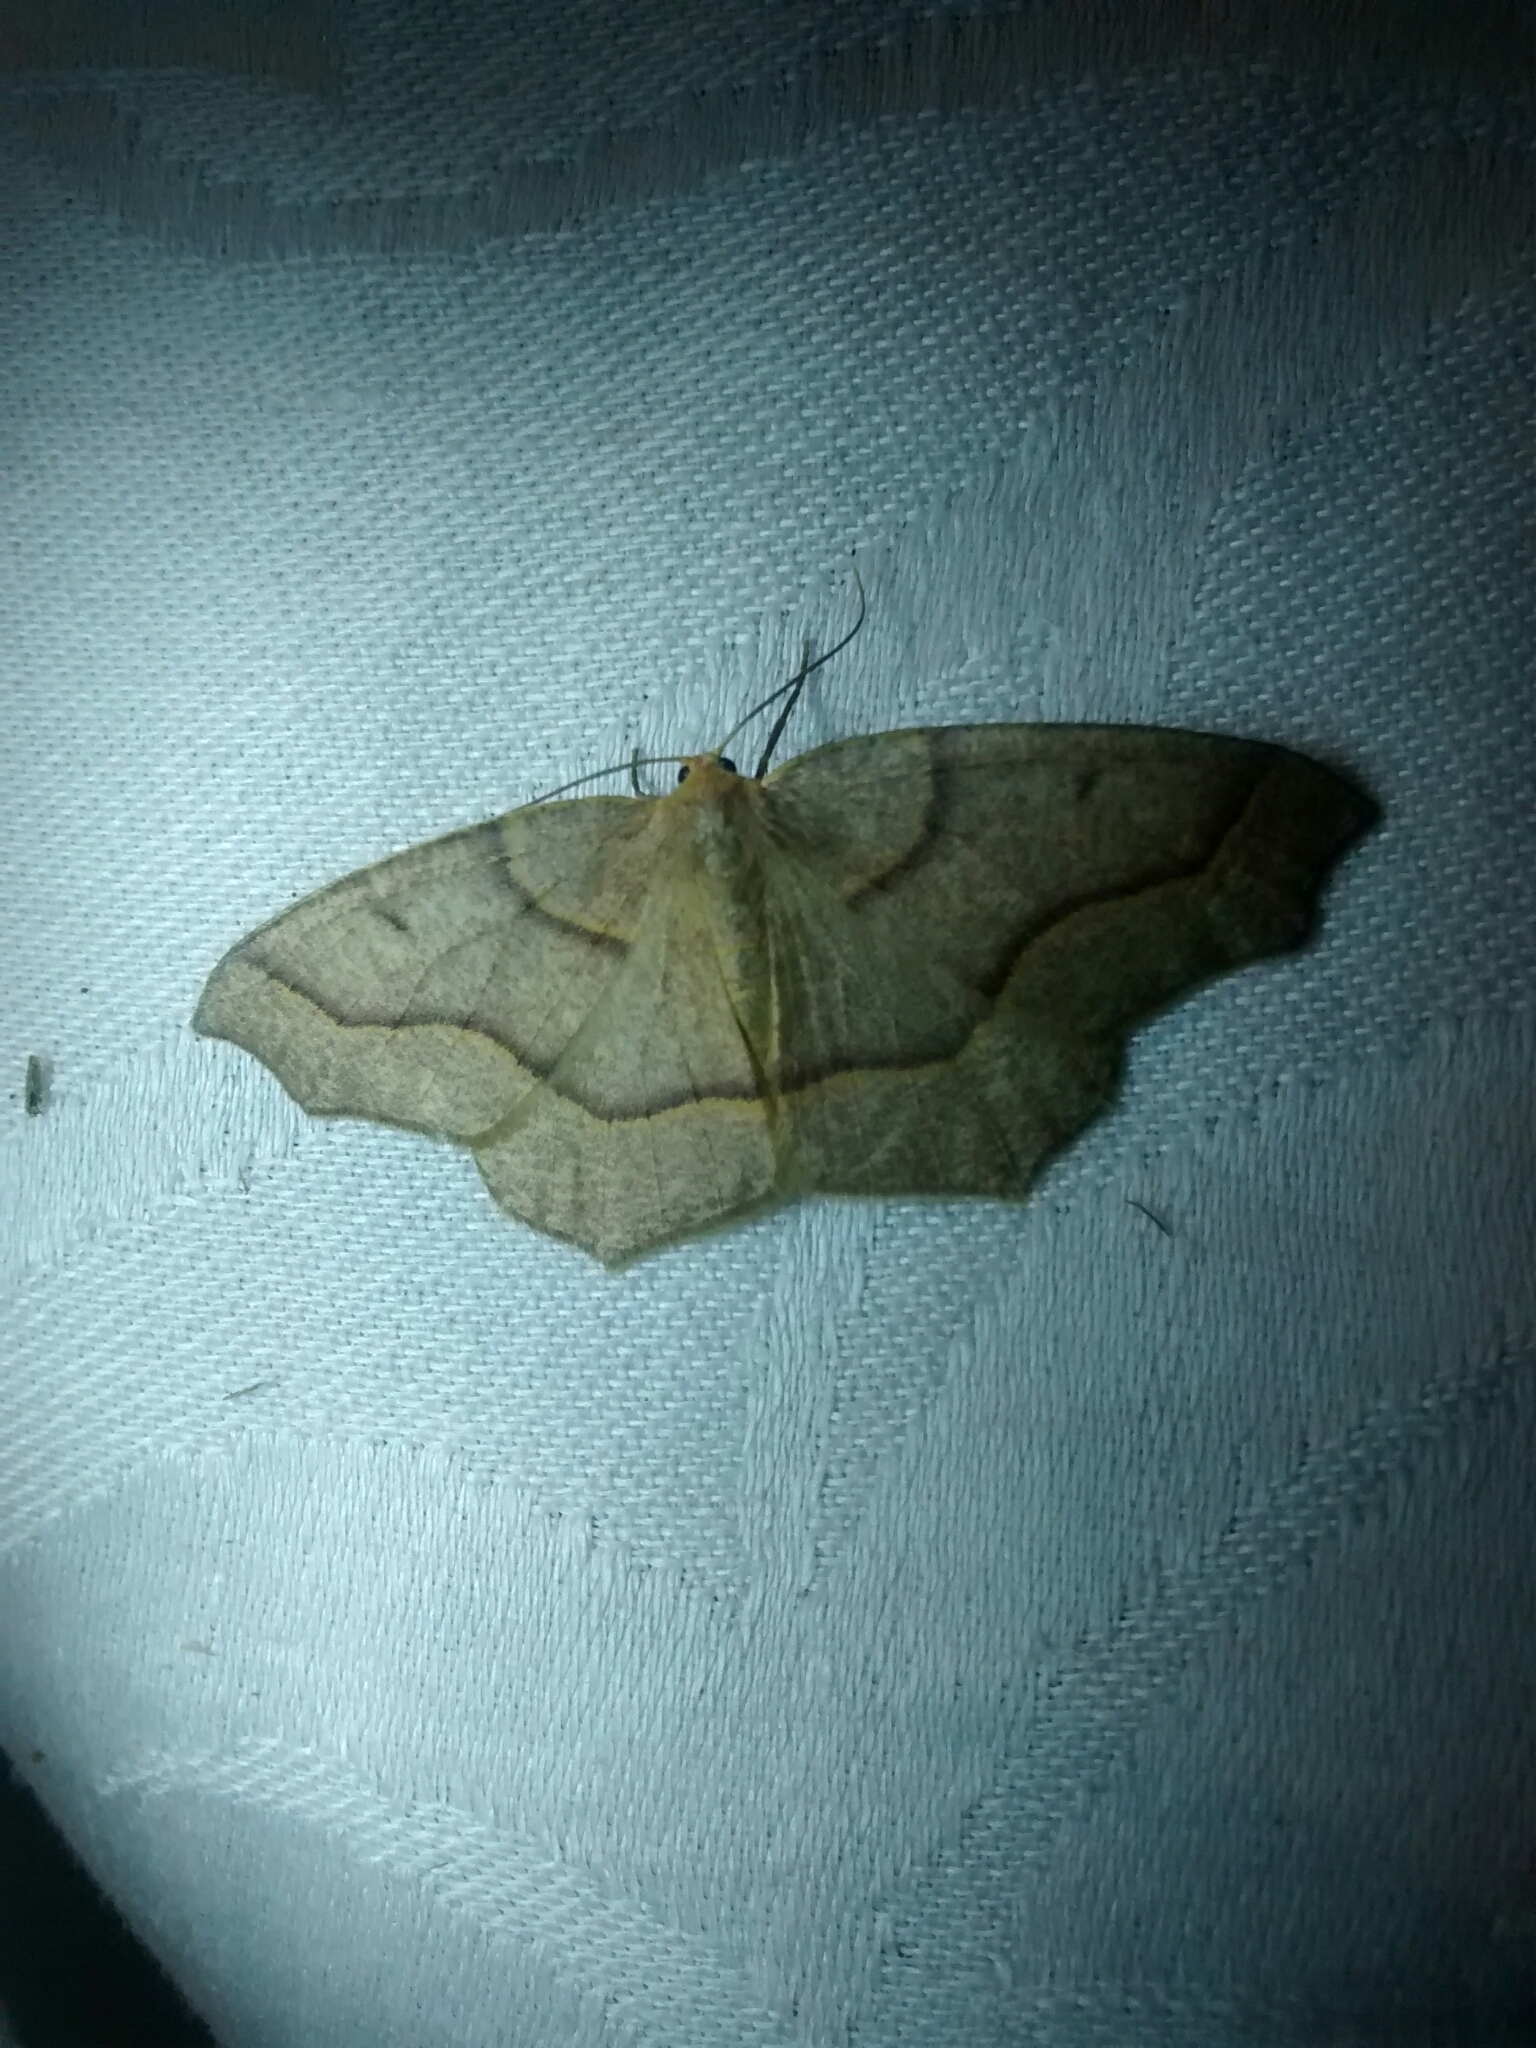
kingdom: Animalia
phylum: Arthropoda
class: Insecta
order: Lepidoptera
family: Geometridae
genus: Lambdina
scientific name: Lambdina fiscellaria
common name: Hemlock looper
